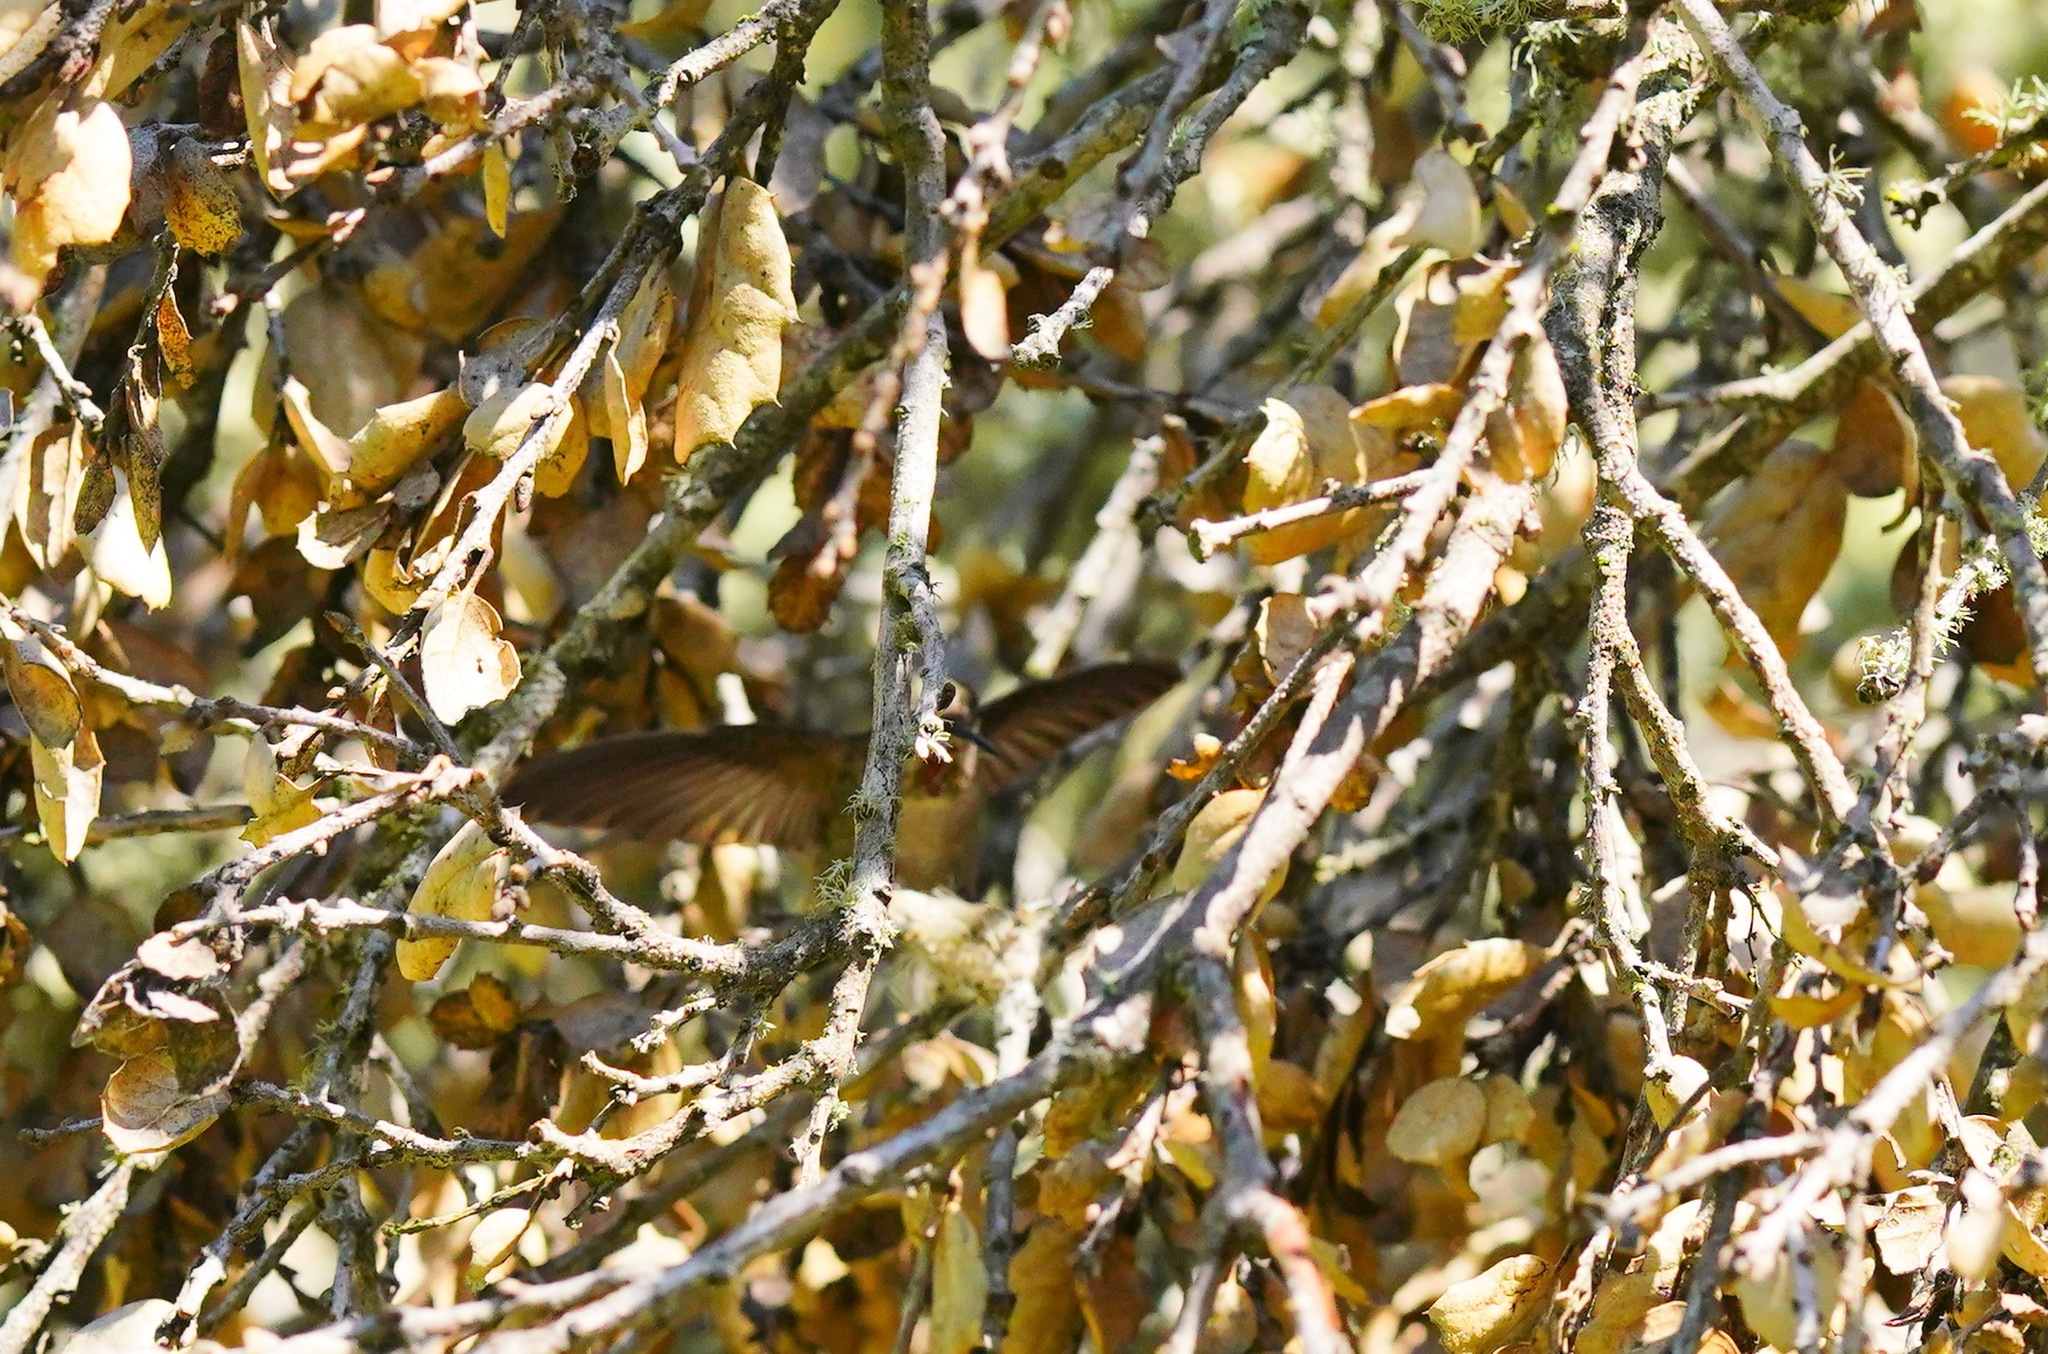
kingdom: Animalia
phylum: Chordata
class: Aves
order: Apodiformes
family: Trochilidae
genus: Calypte
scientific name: Calypte anna
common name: Anna's hummingbird
